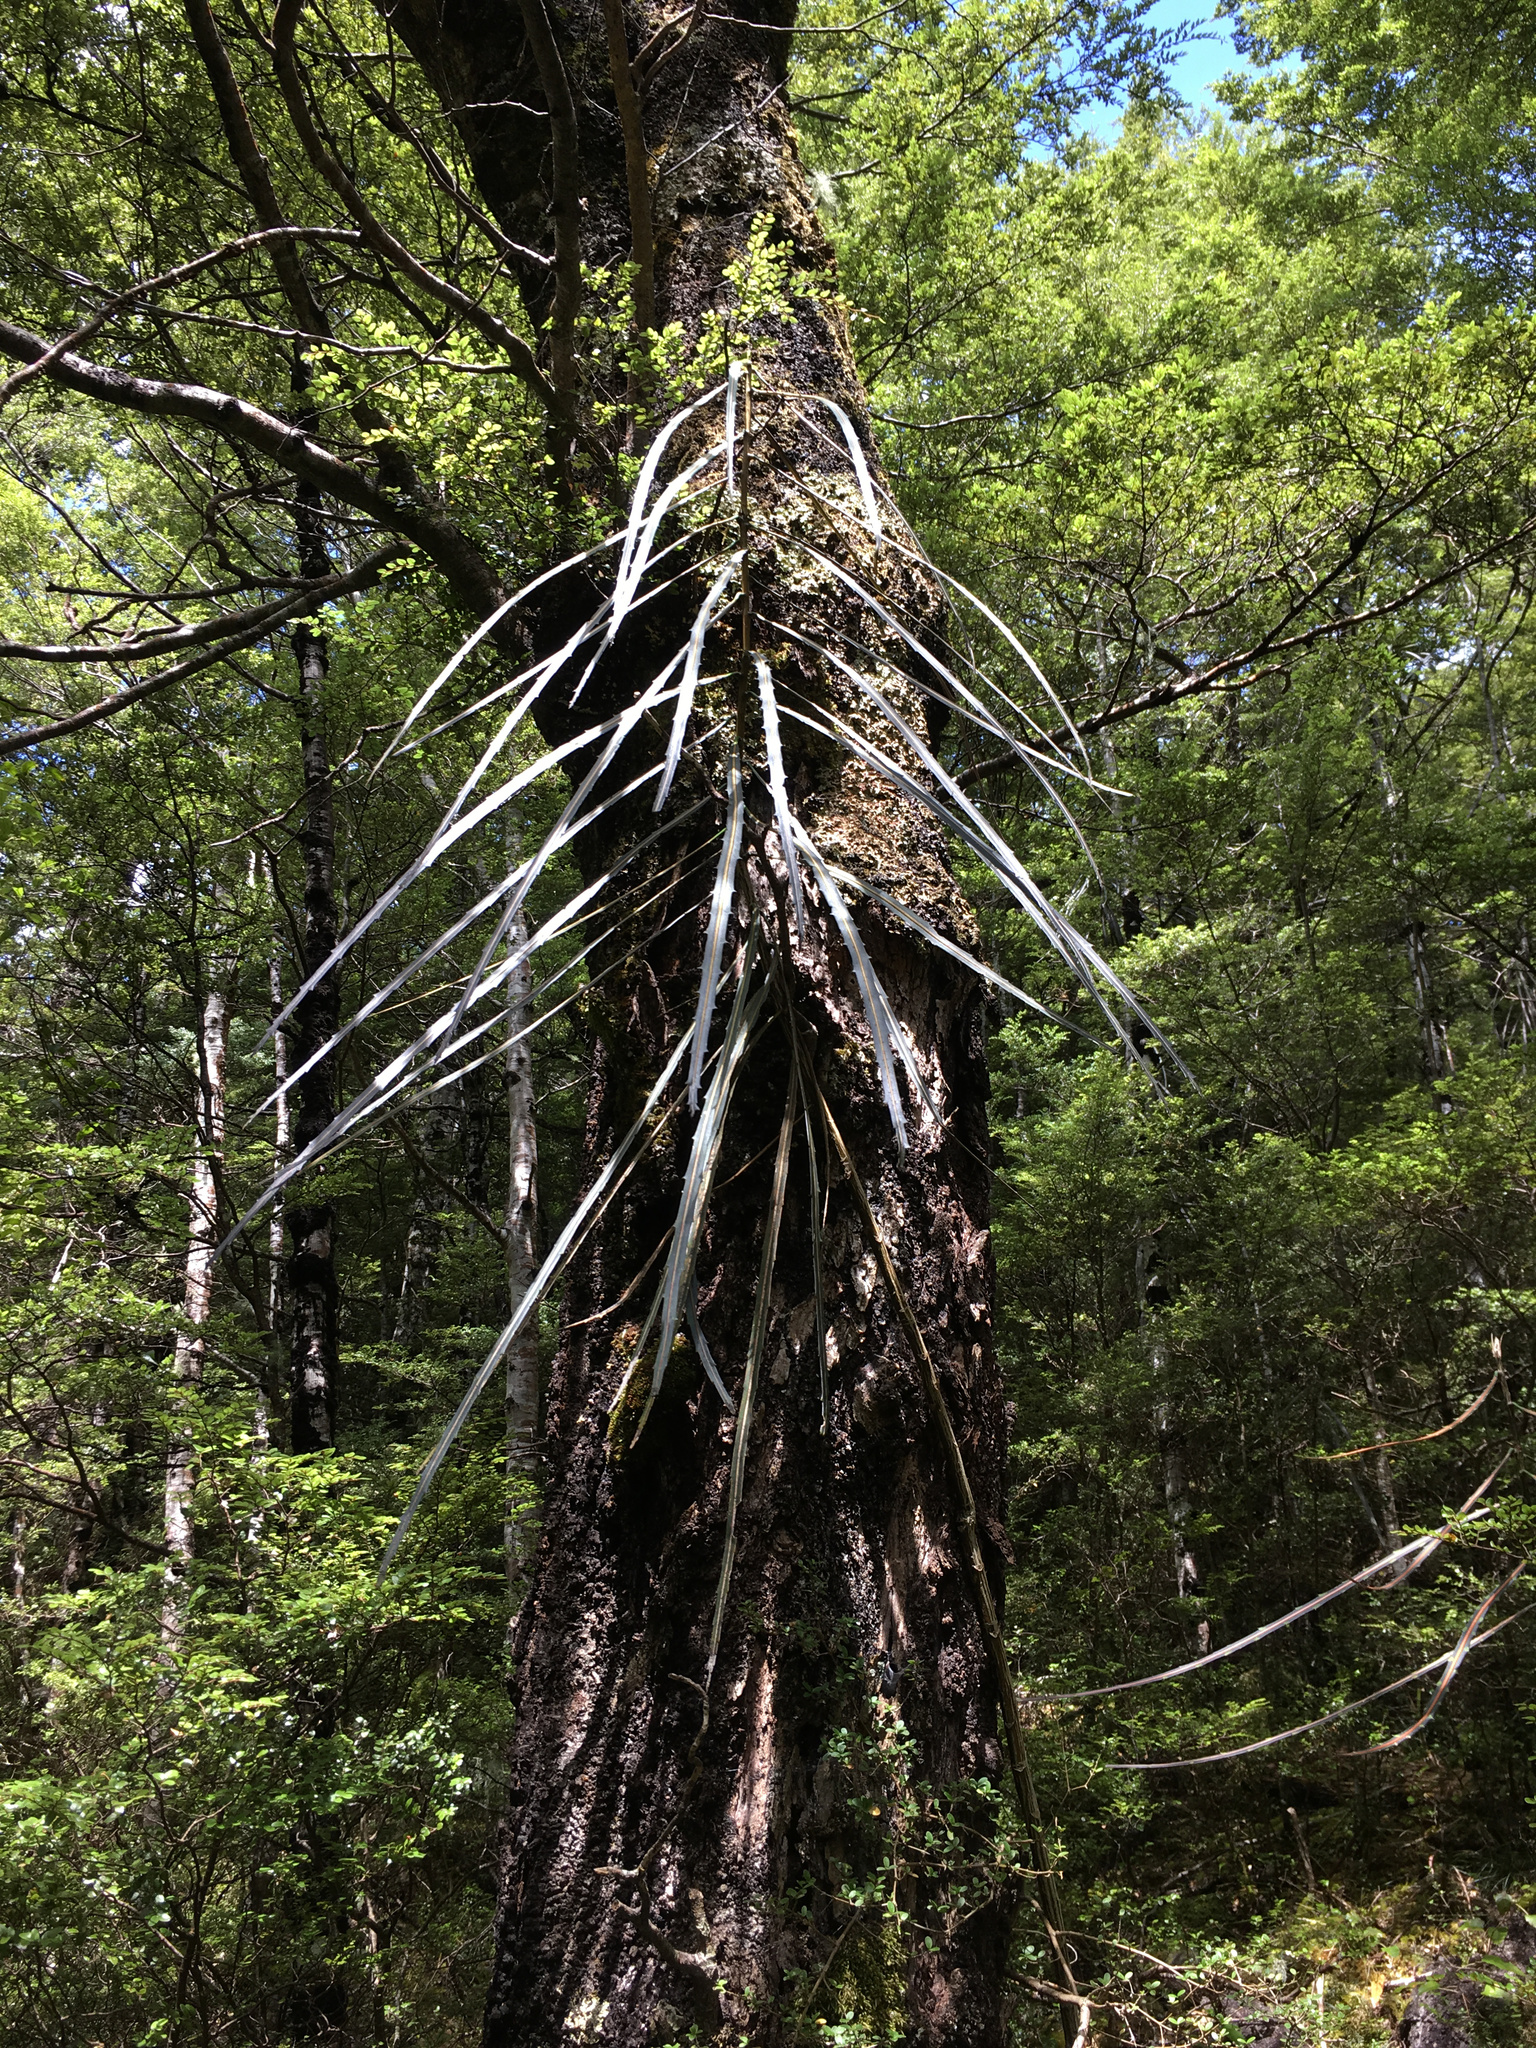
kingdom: Plantae
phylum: Tracheophyta
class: Magnoliopsida
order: Apiales
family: Araliaceae
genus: Pseudopanax
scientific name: Pseudopanax crassifolius
